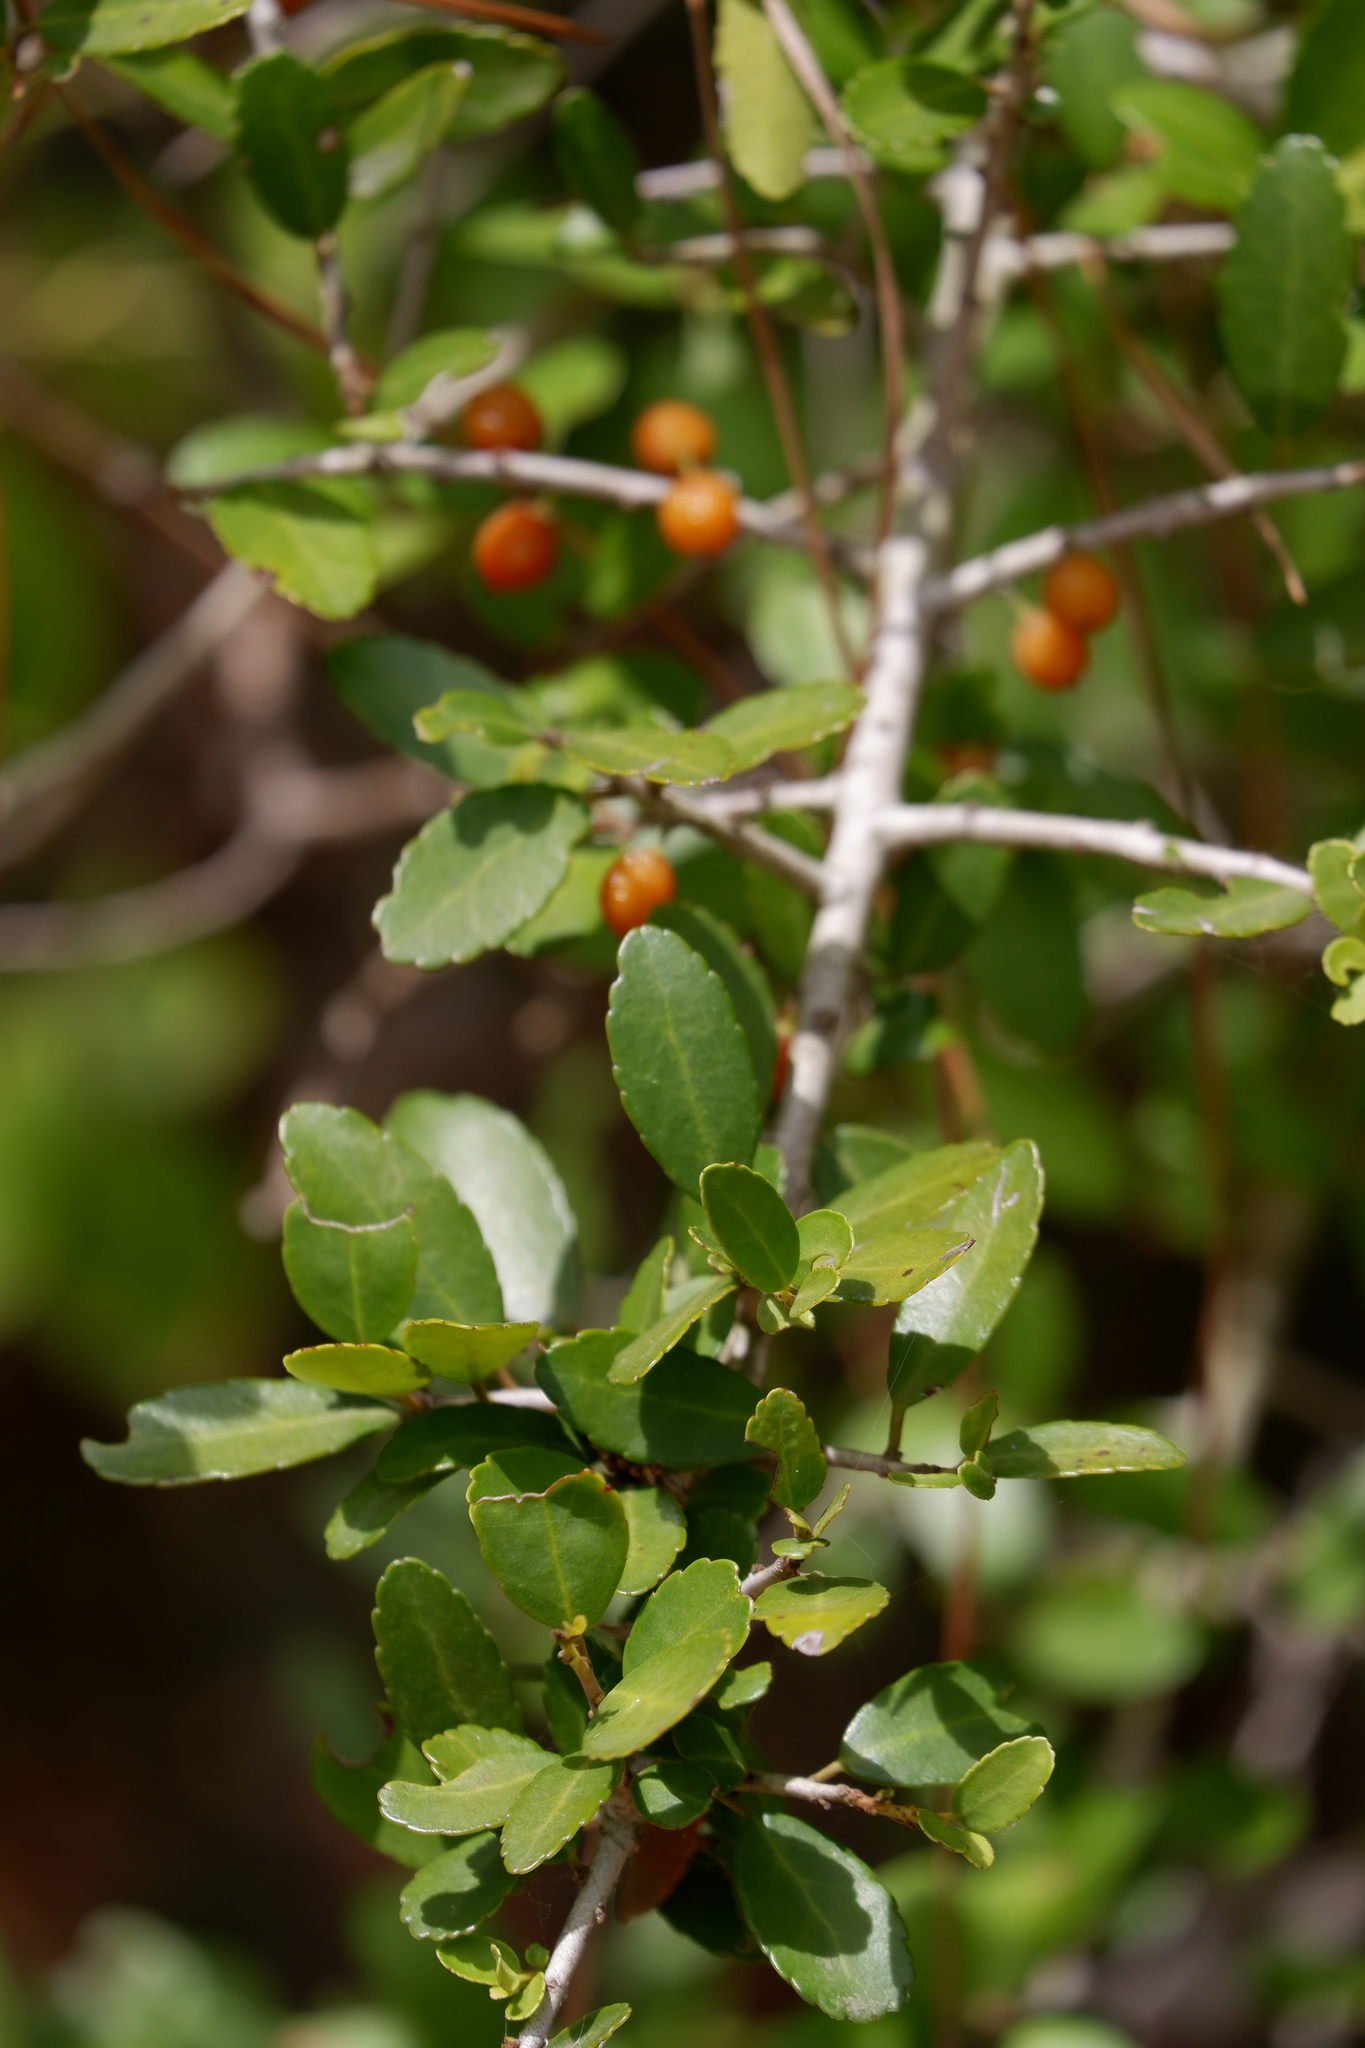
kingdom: Plantae
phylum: Tracheophyta
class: Magnoliopsida
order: Aquifoliales
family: Aquifoliaceae
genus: Ilex
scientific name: Ilex vomitoria
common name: Yaupon holly
